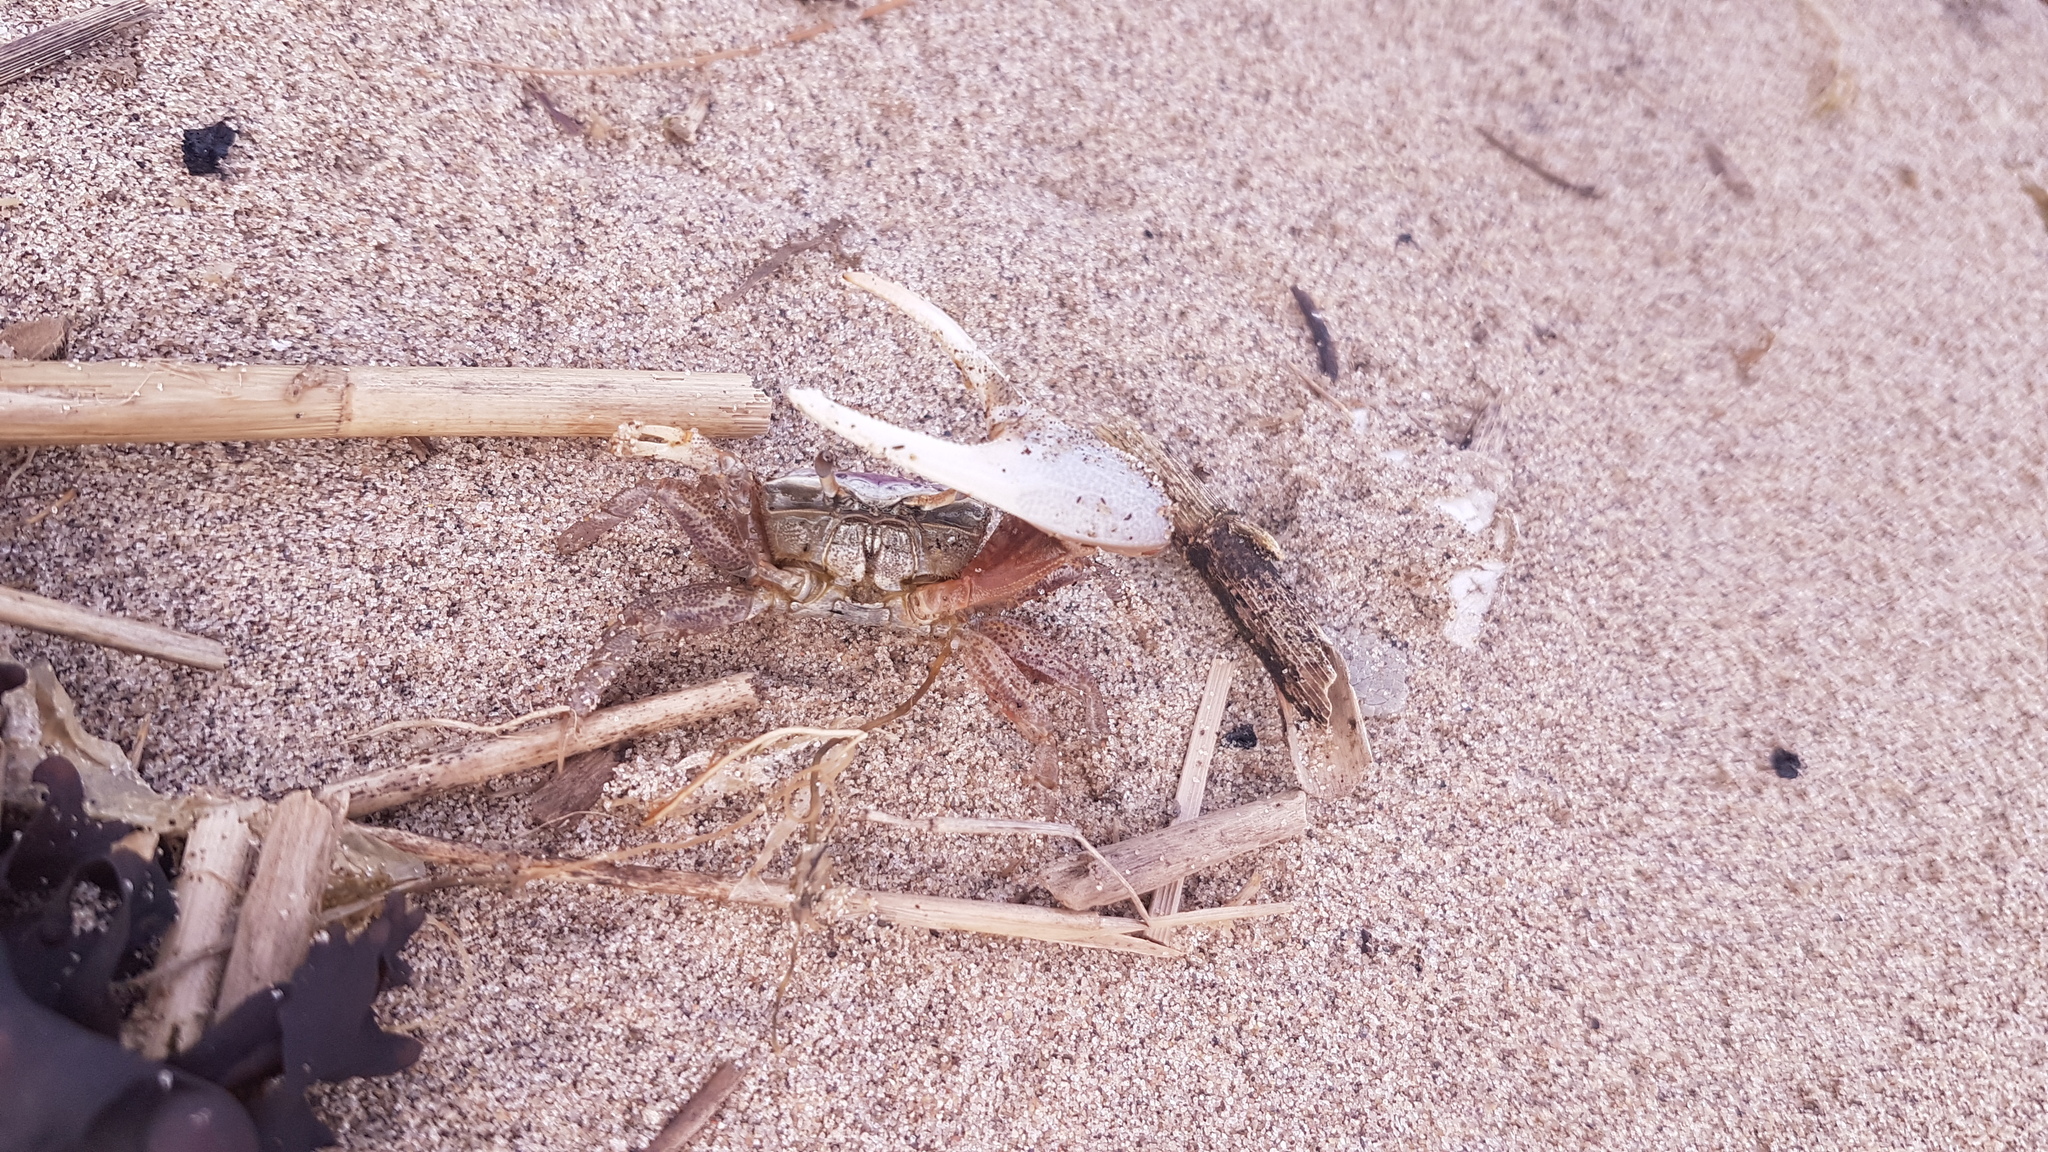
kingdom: Animalia
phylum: Arthropoda
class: Malacostraca
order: Decapoda
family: Ocypodidae
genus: Leptuca
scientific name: Leptuca pugilator
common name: Atlantic sand fiddler crab
